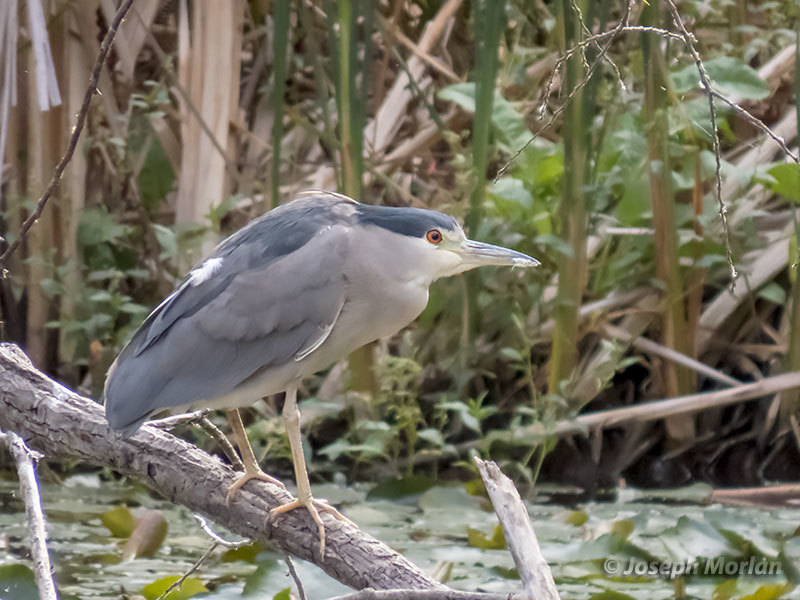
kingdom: Animalia
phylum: Chordata
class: Aves
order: Pelecaniformes
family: Ardeidae
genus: Nycticorax
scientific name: Nycticorax nycticorax
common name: Black-crowned night heron
